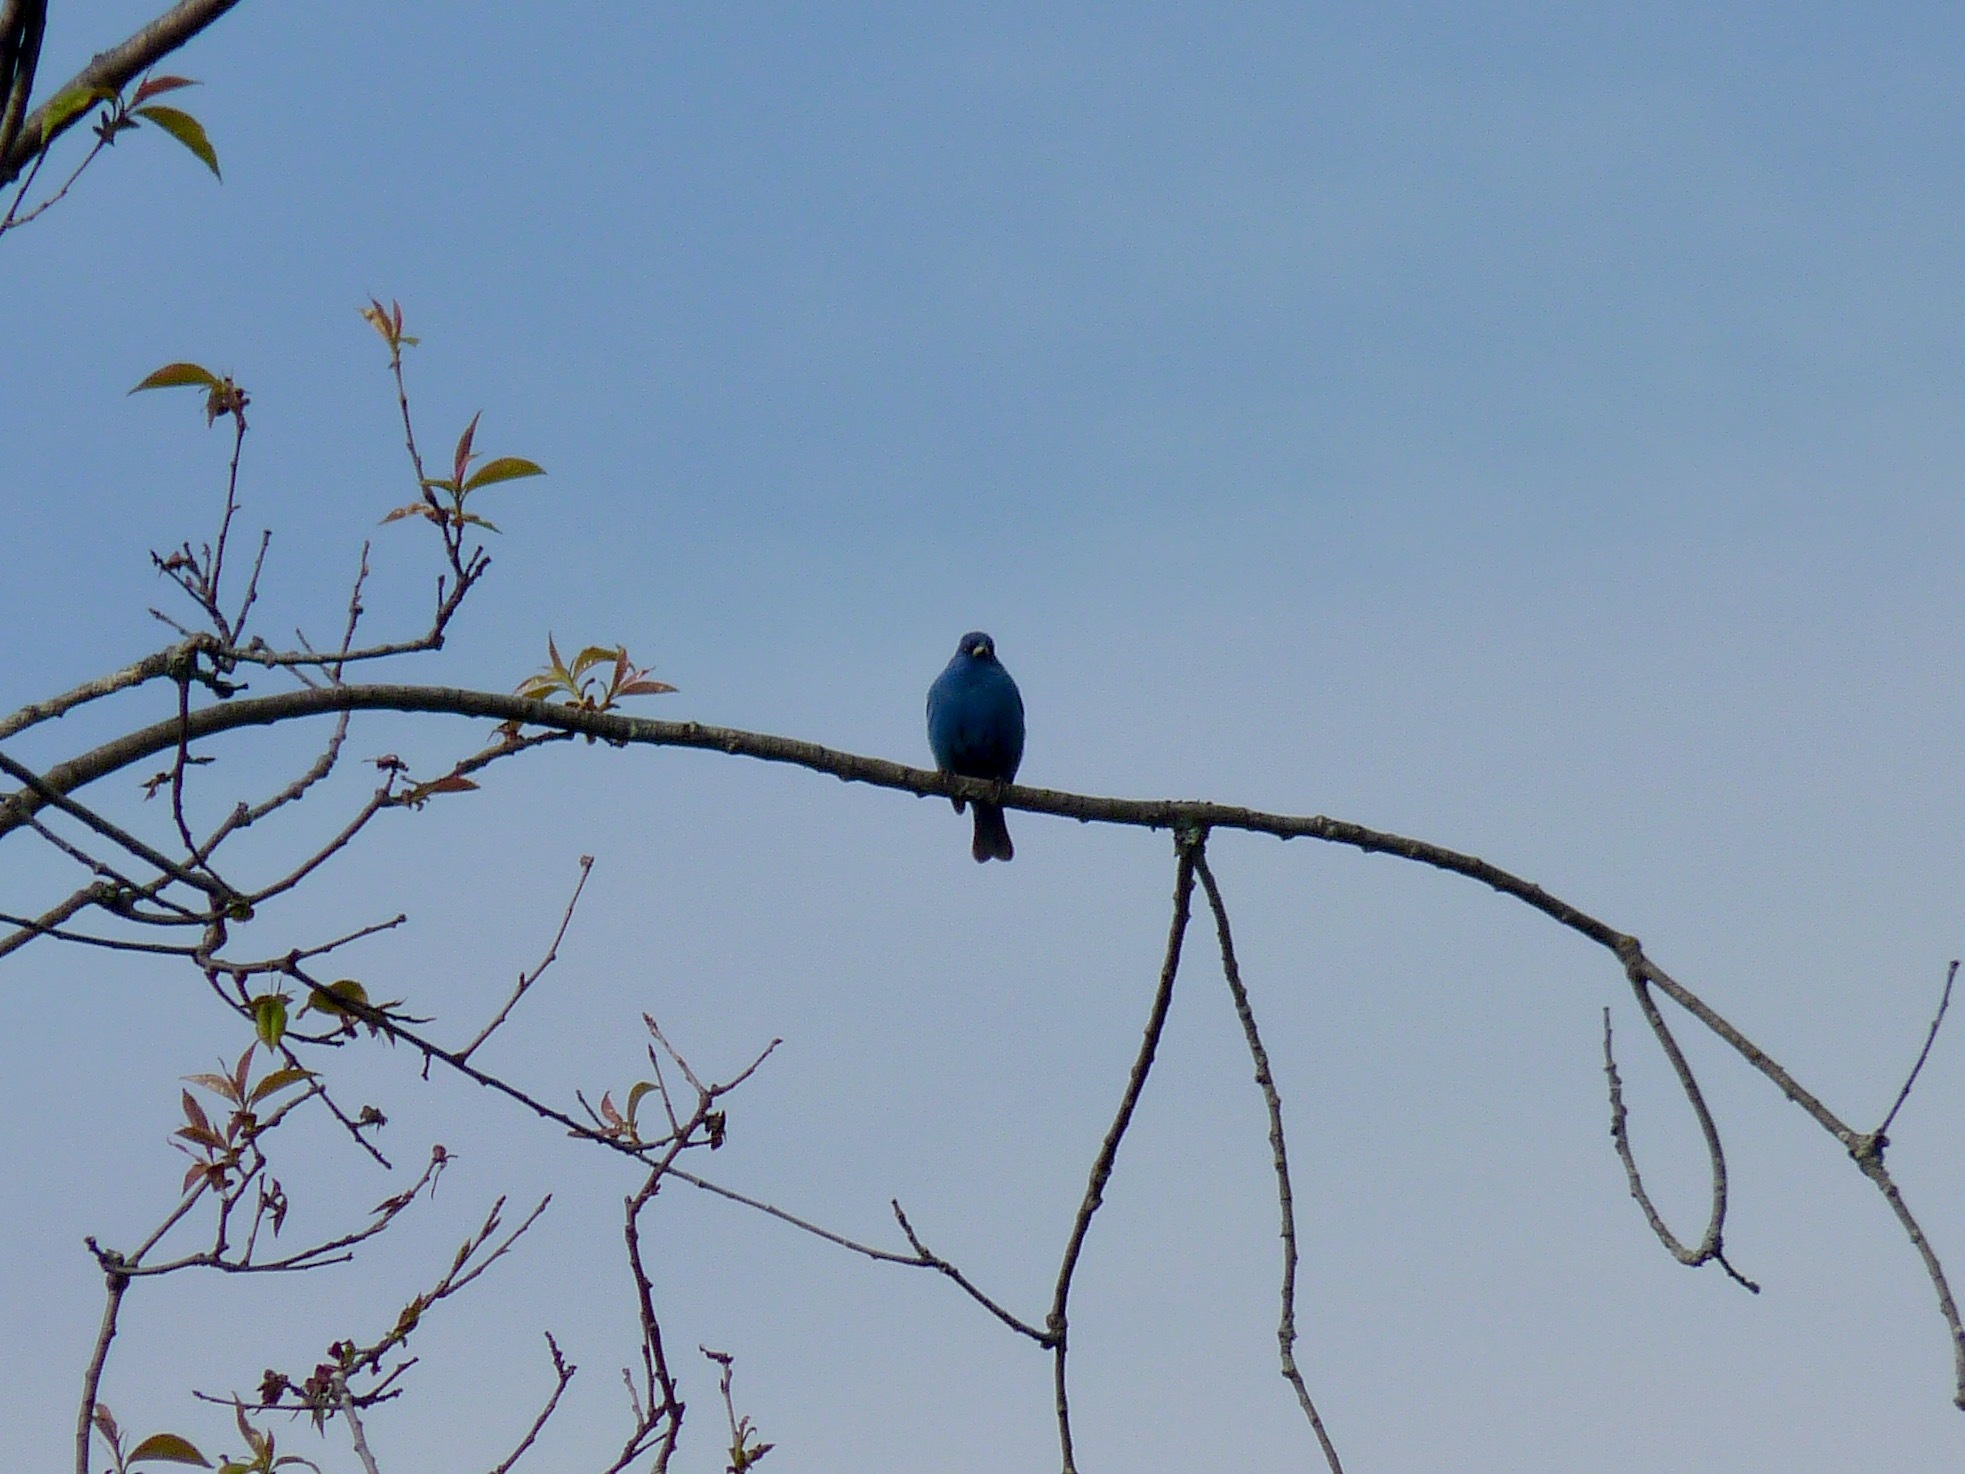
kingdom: Animalia
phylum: Chordata
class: Aves
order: Passeriformes
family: Cardinalidae
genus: Passerina
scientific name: Passerina cyanea
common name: Indigo bunting
